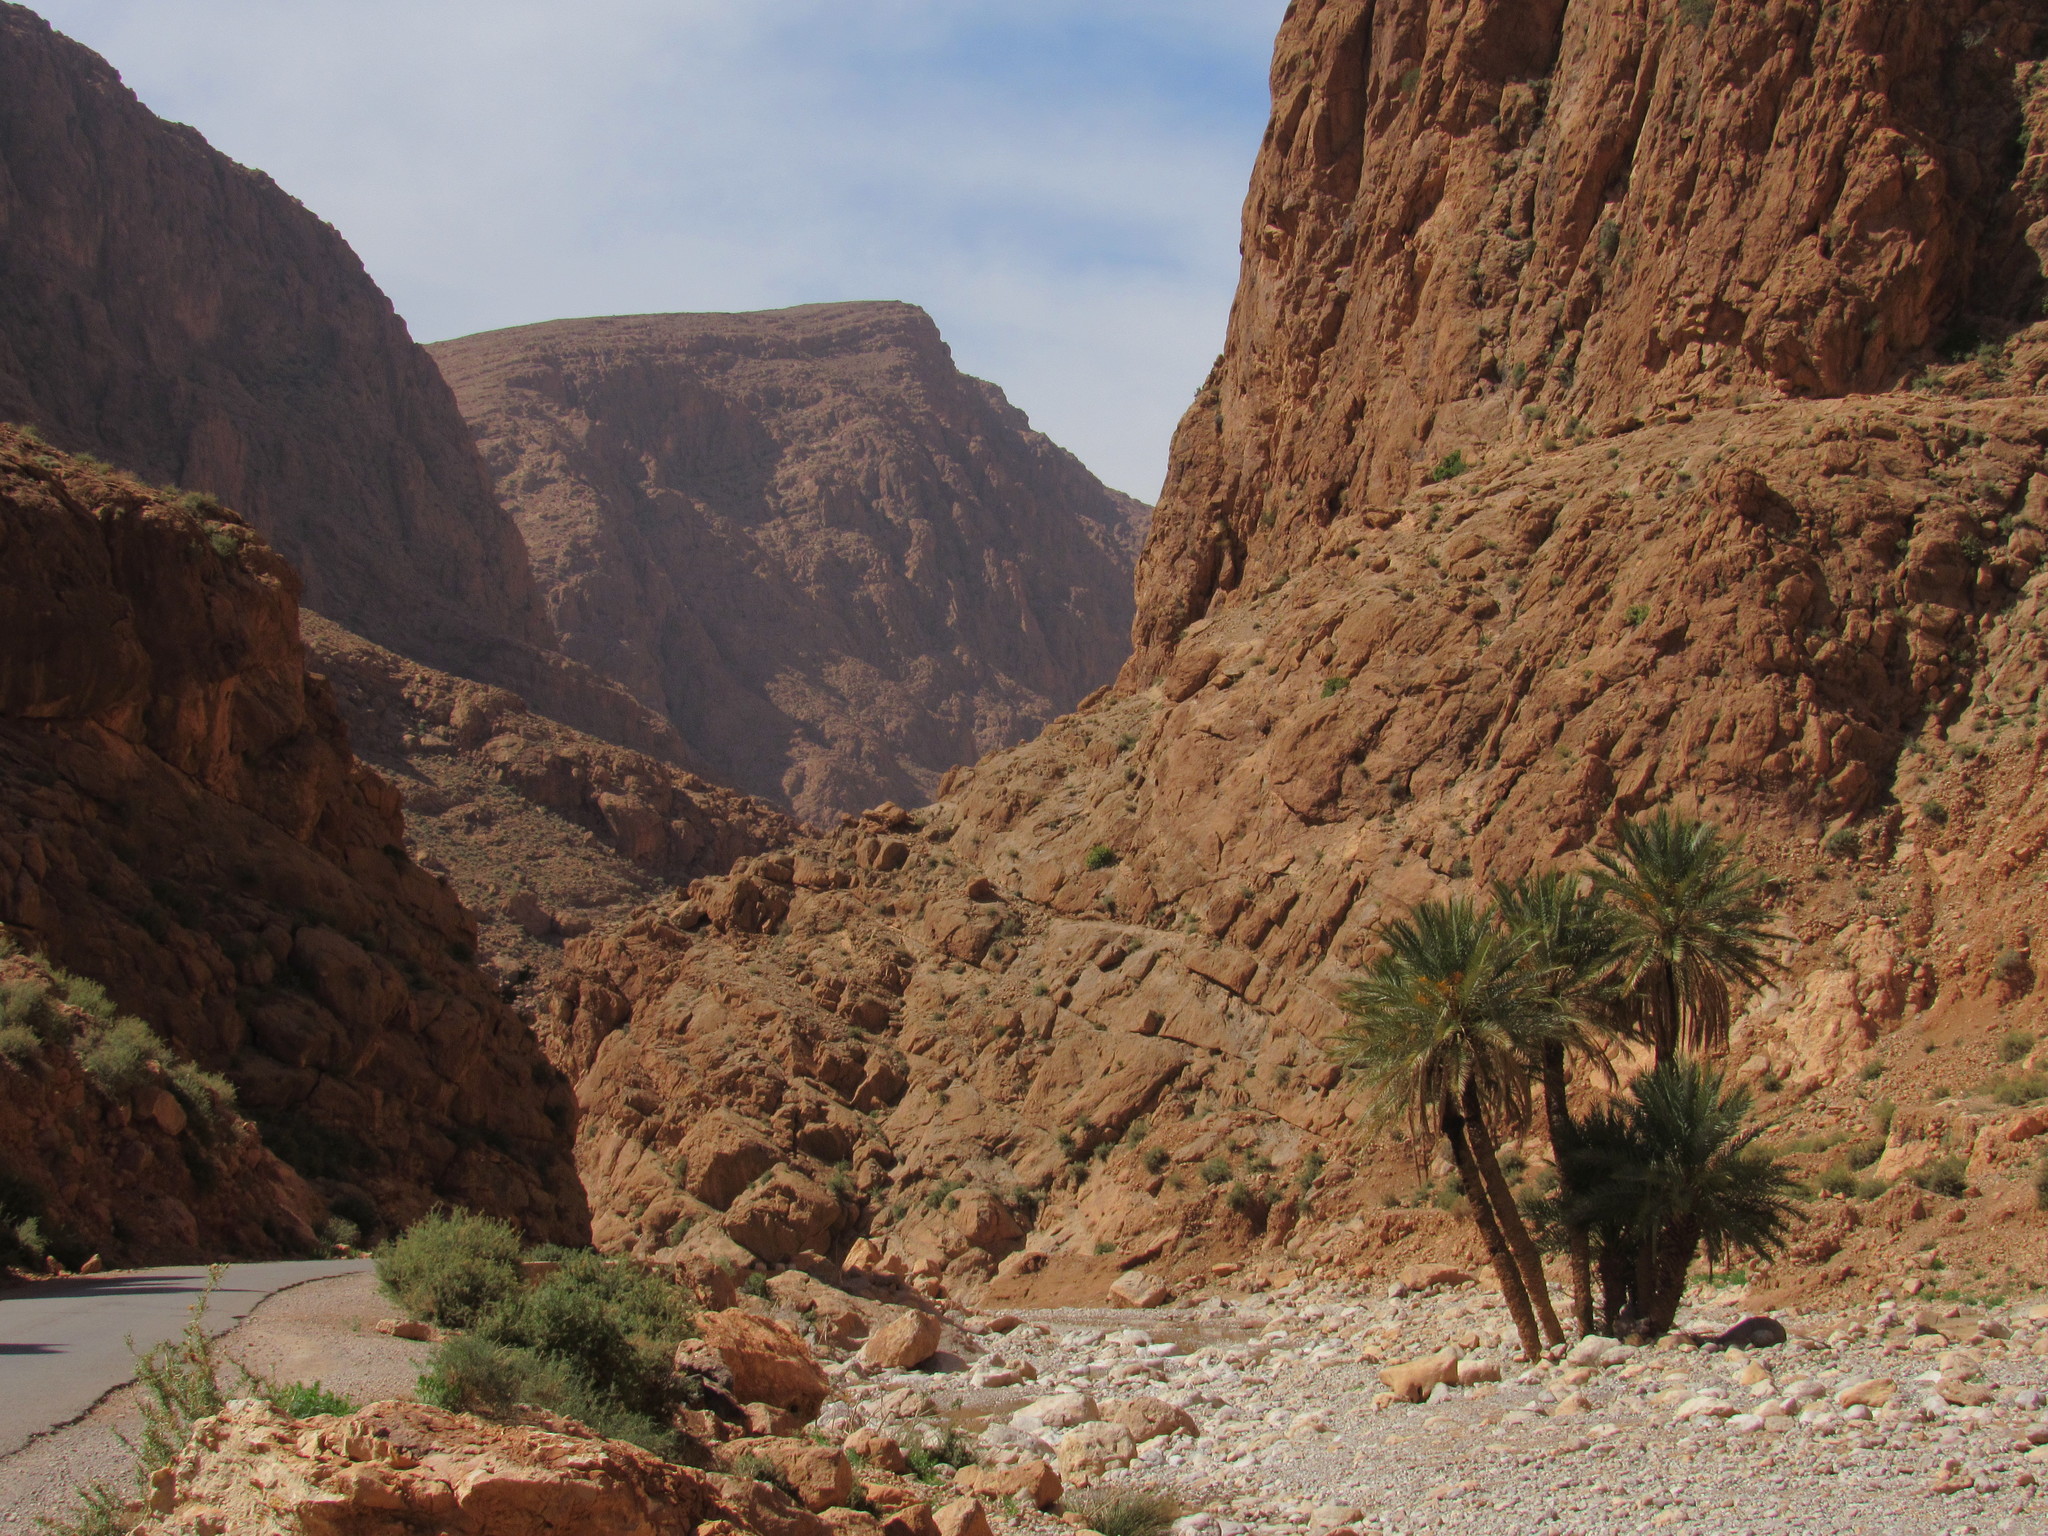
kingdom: Plantae
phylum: Tracheophyta
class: Liliopsida
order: Arecales
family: Arecaceae
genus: Phoenix
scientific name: Phoenix dactylifera
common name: Date palm
